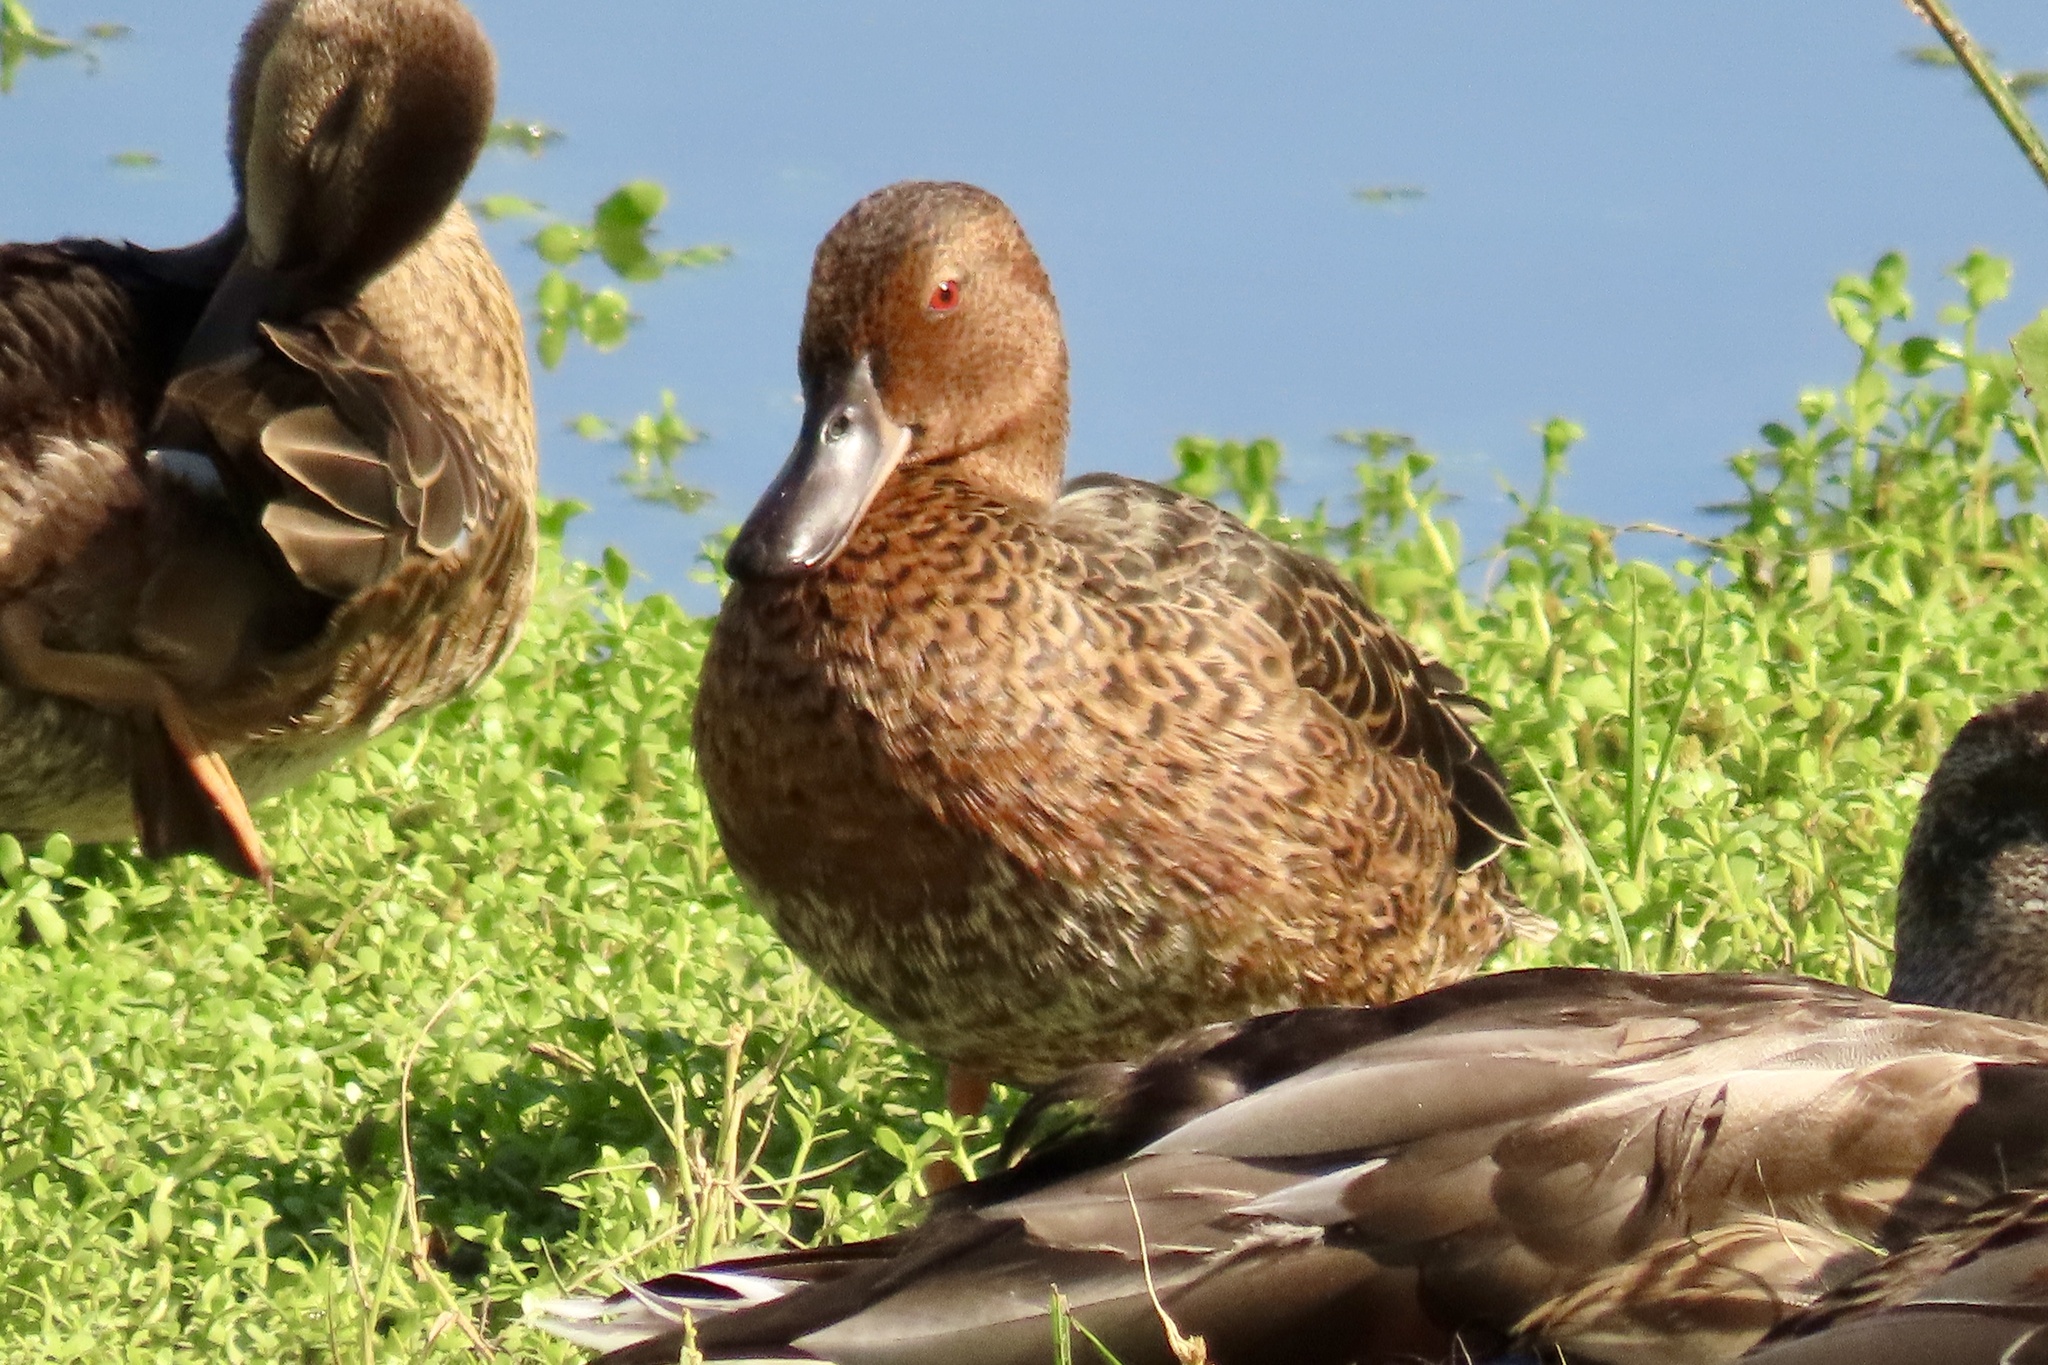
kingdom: Animalia
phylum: Chordata
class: Aves
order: Anseriformes
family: Anatidae
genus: Spatula
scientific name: Spatula cyanoptera
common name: Cinnamon teal
